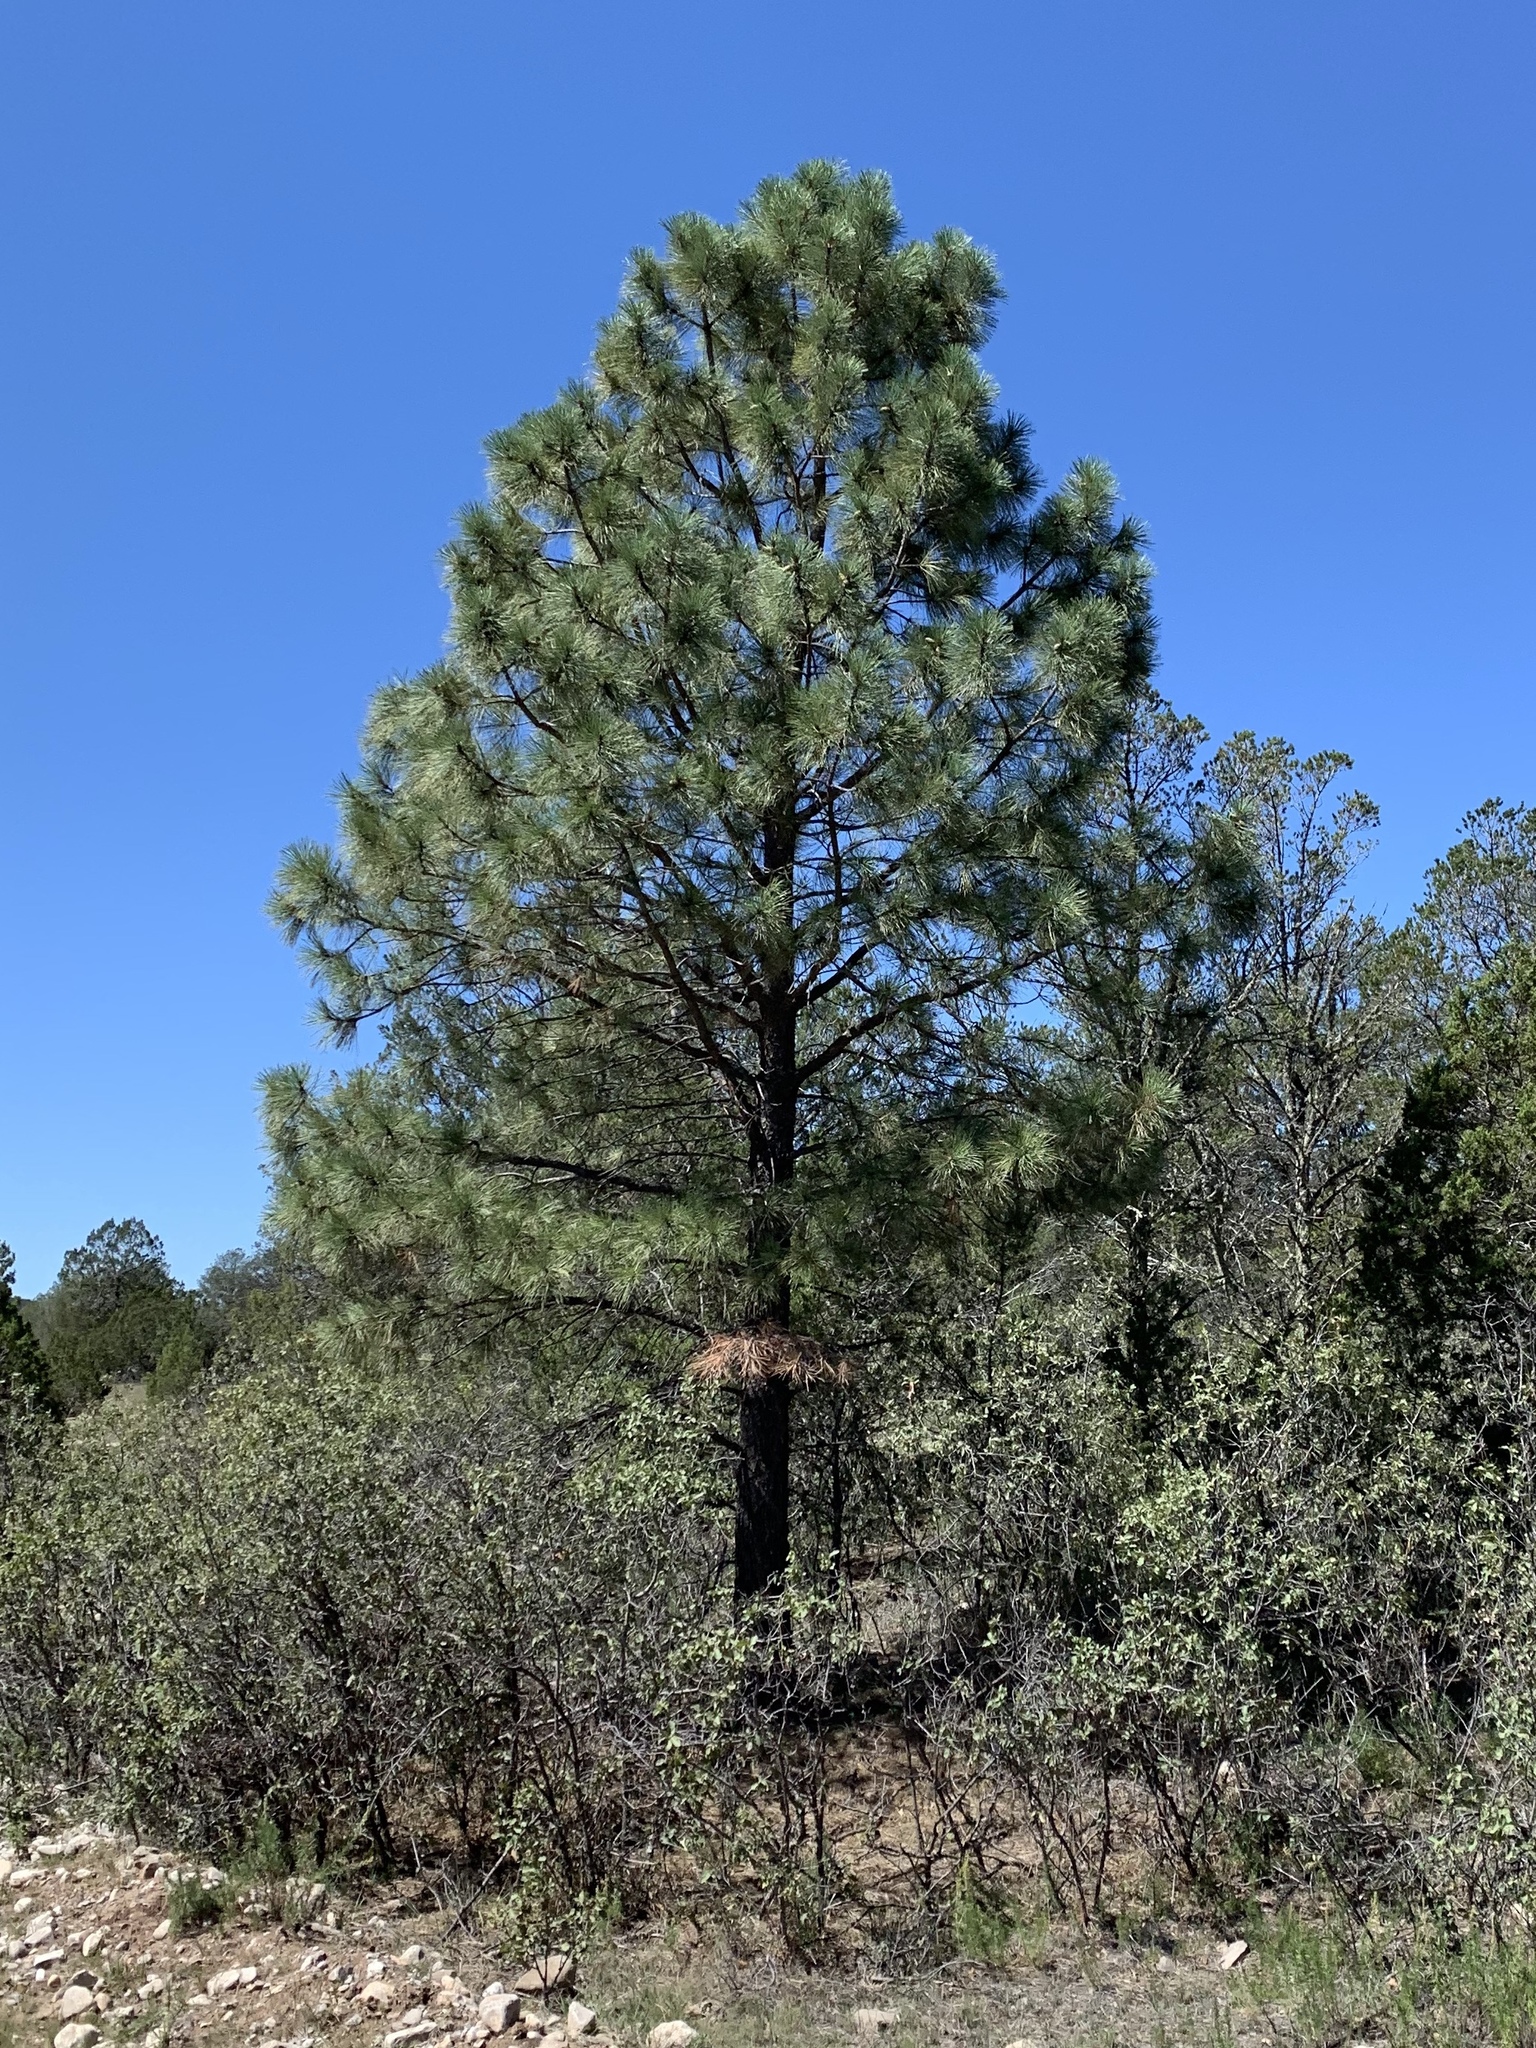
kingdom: Plantae
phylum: Tracheophyta
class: Pinopsida
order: Pinales
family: Pinaceae
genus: Pinus
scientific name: Pinus ponderosa
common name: Western yellow-pine
